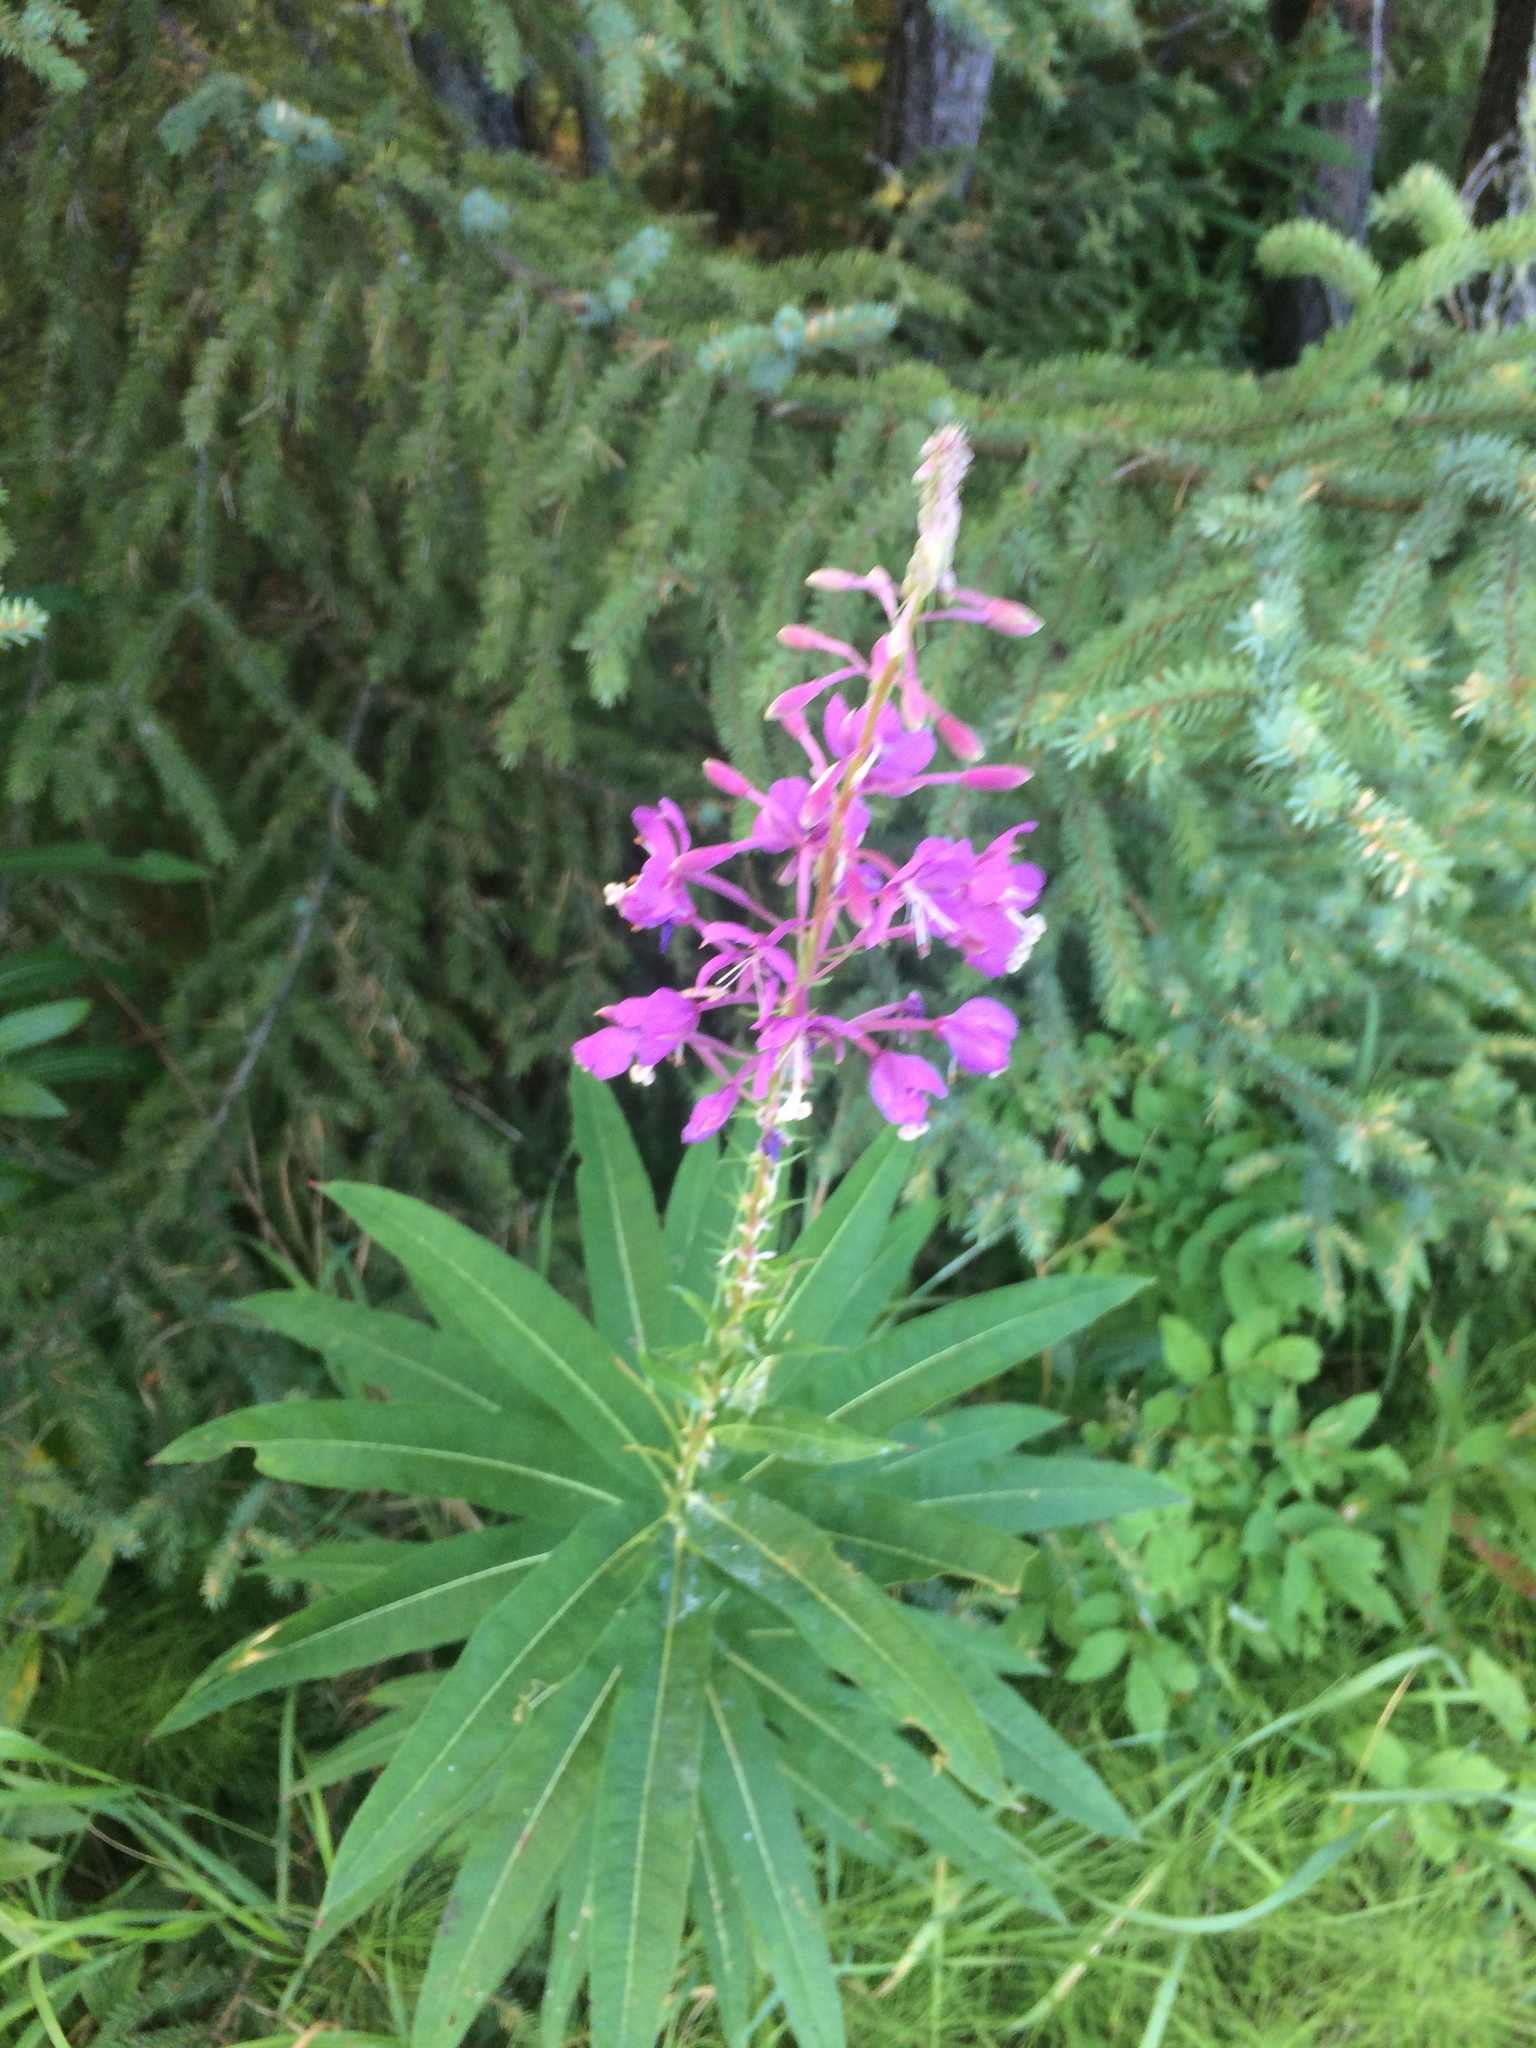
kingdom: Plantae
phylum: Tracheophyta
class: Magnoliopsida
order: Myrtales
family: Onagraceae
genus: Chamaenerion
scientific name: Chamaenerion angustifolium
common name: Fireweed
